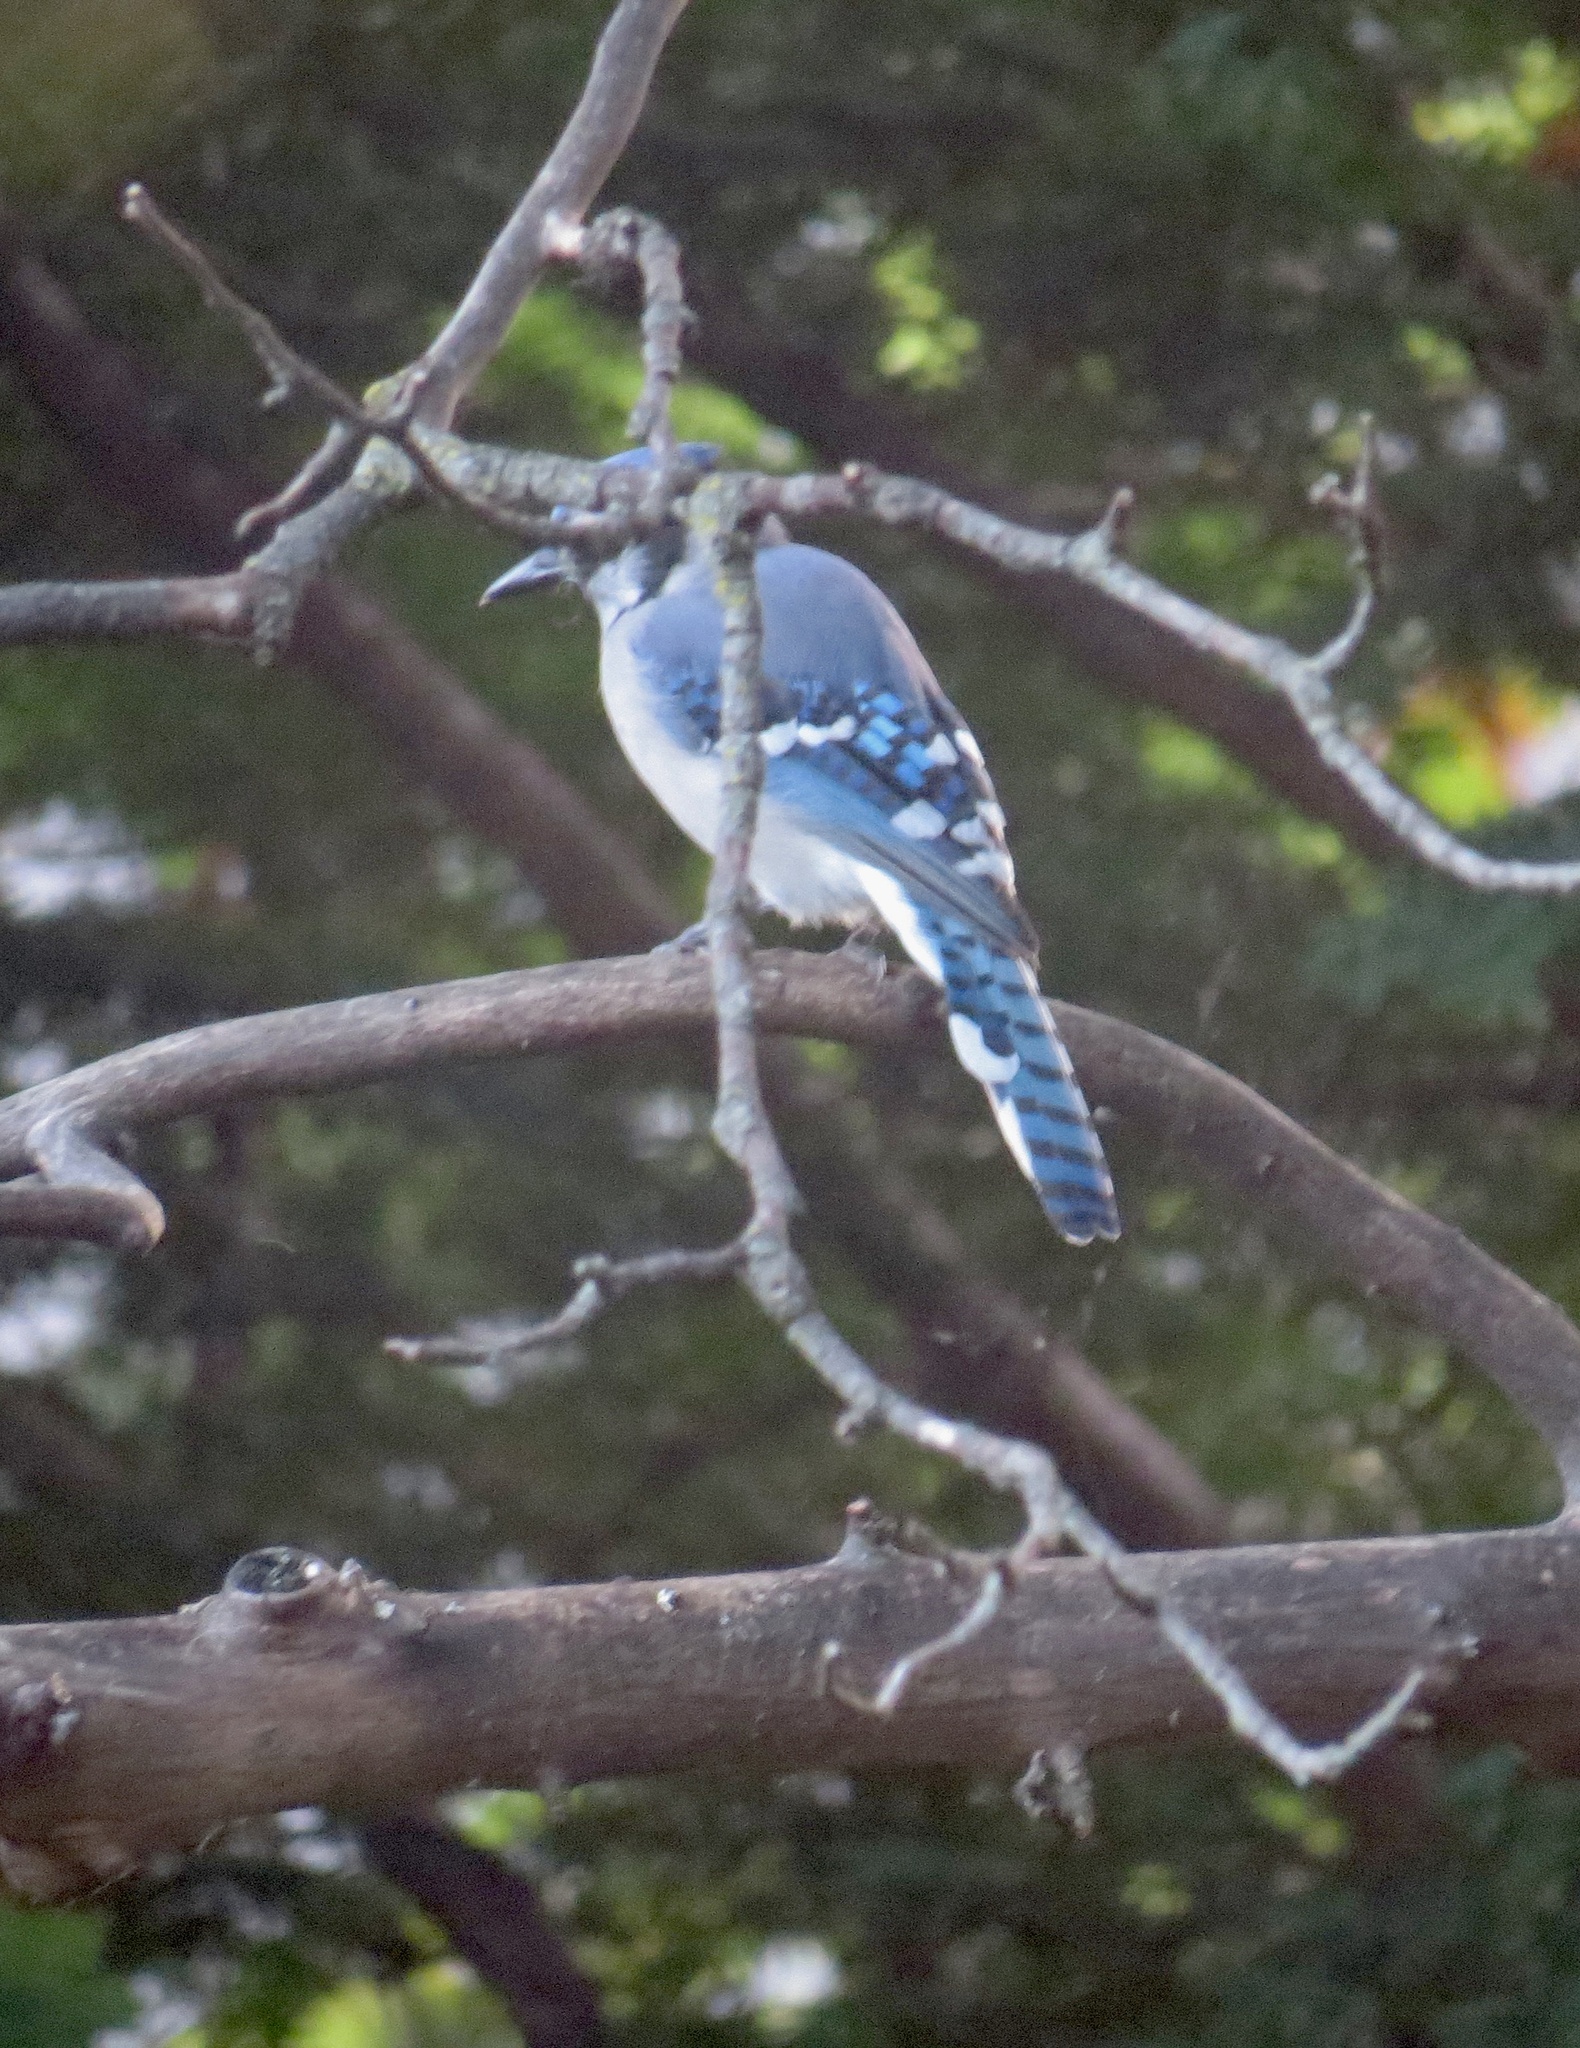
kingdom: Animalia
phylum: Chordata
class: Aves
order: Passeriformes
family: Corvidae
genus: Cyanocitta
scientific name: Cyanocitta cristata
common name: Blue jay
